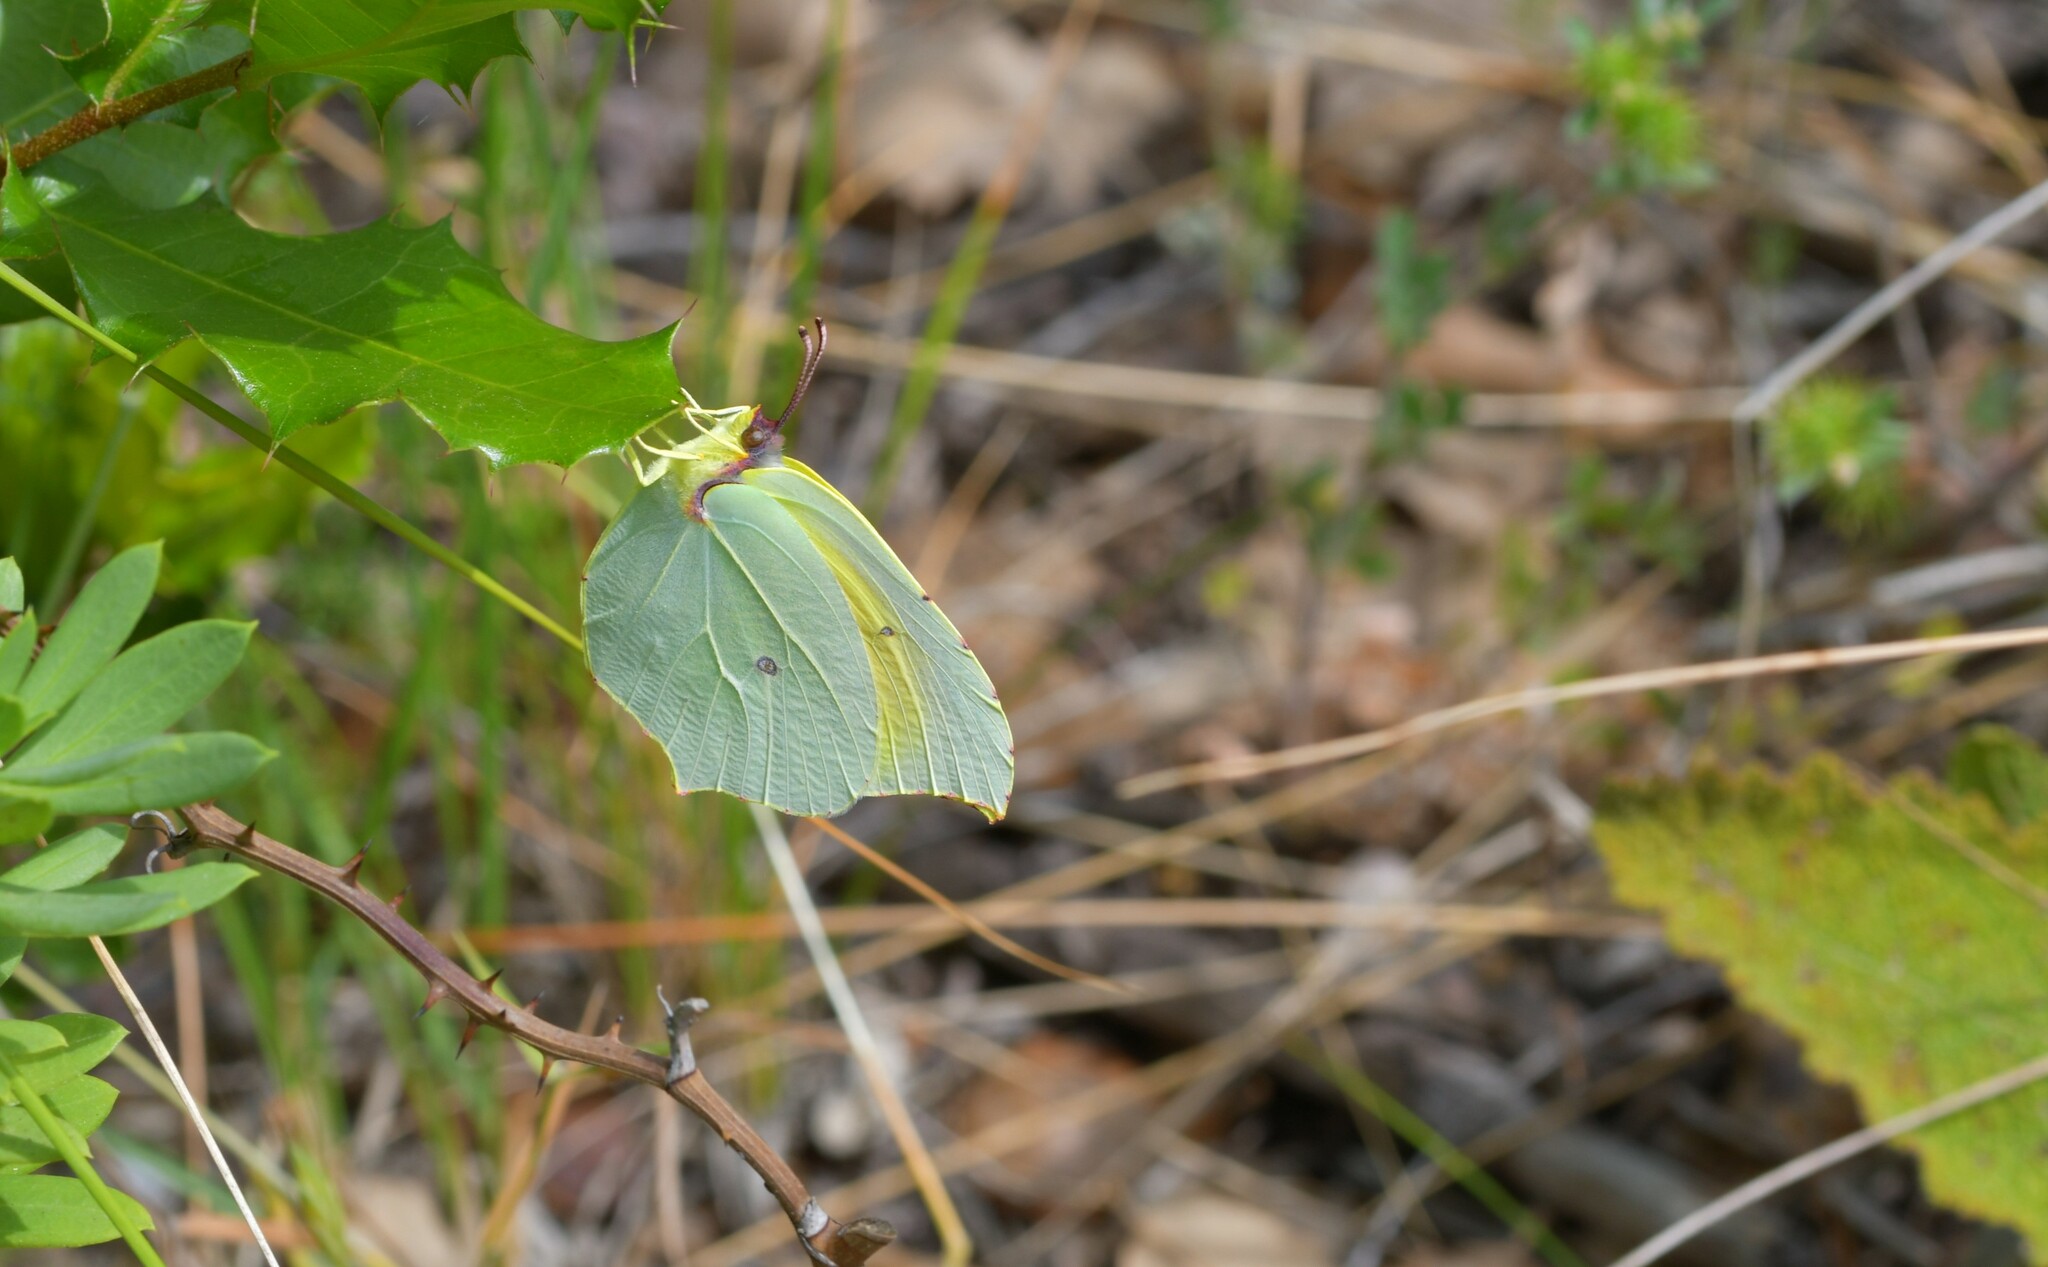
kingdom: Animalia
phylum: Arthropoda
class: Insecta
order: Lepidoptera
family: Pieridae
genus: Gonepteryx
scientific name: Gonepteryx cleopatra
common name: Cleopatra
